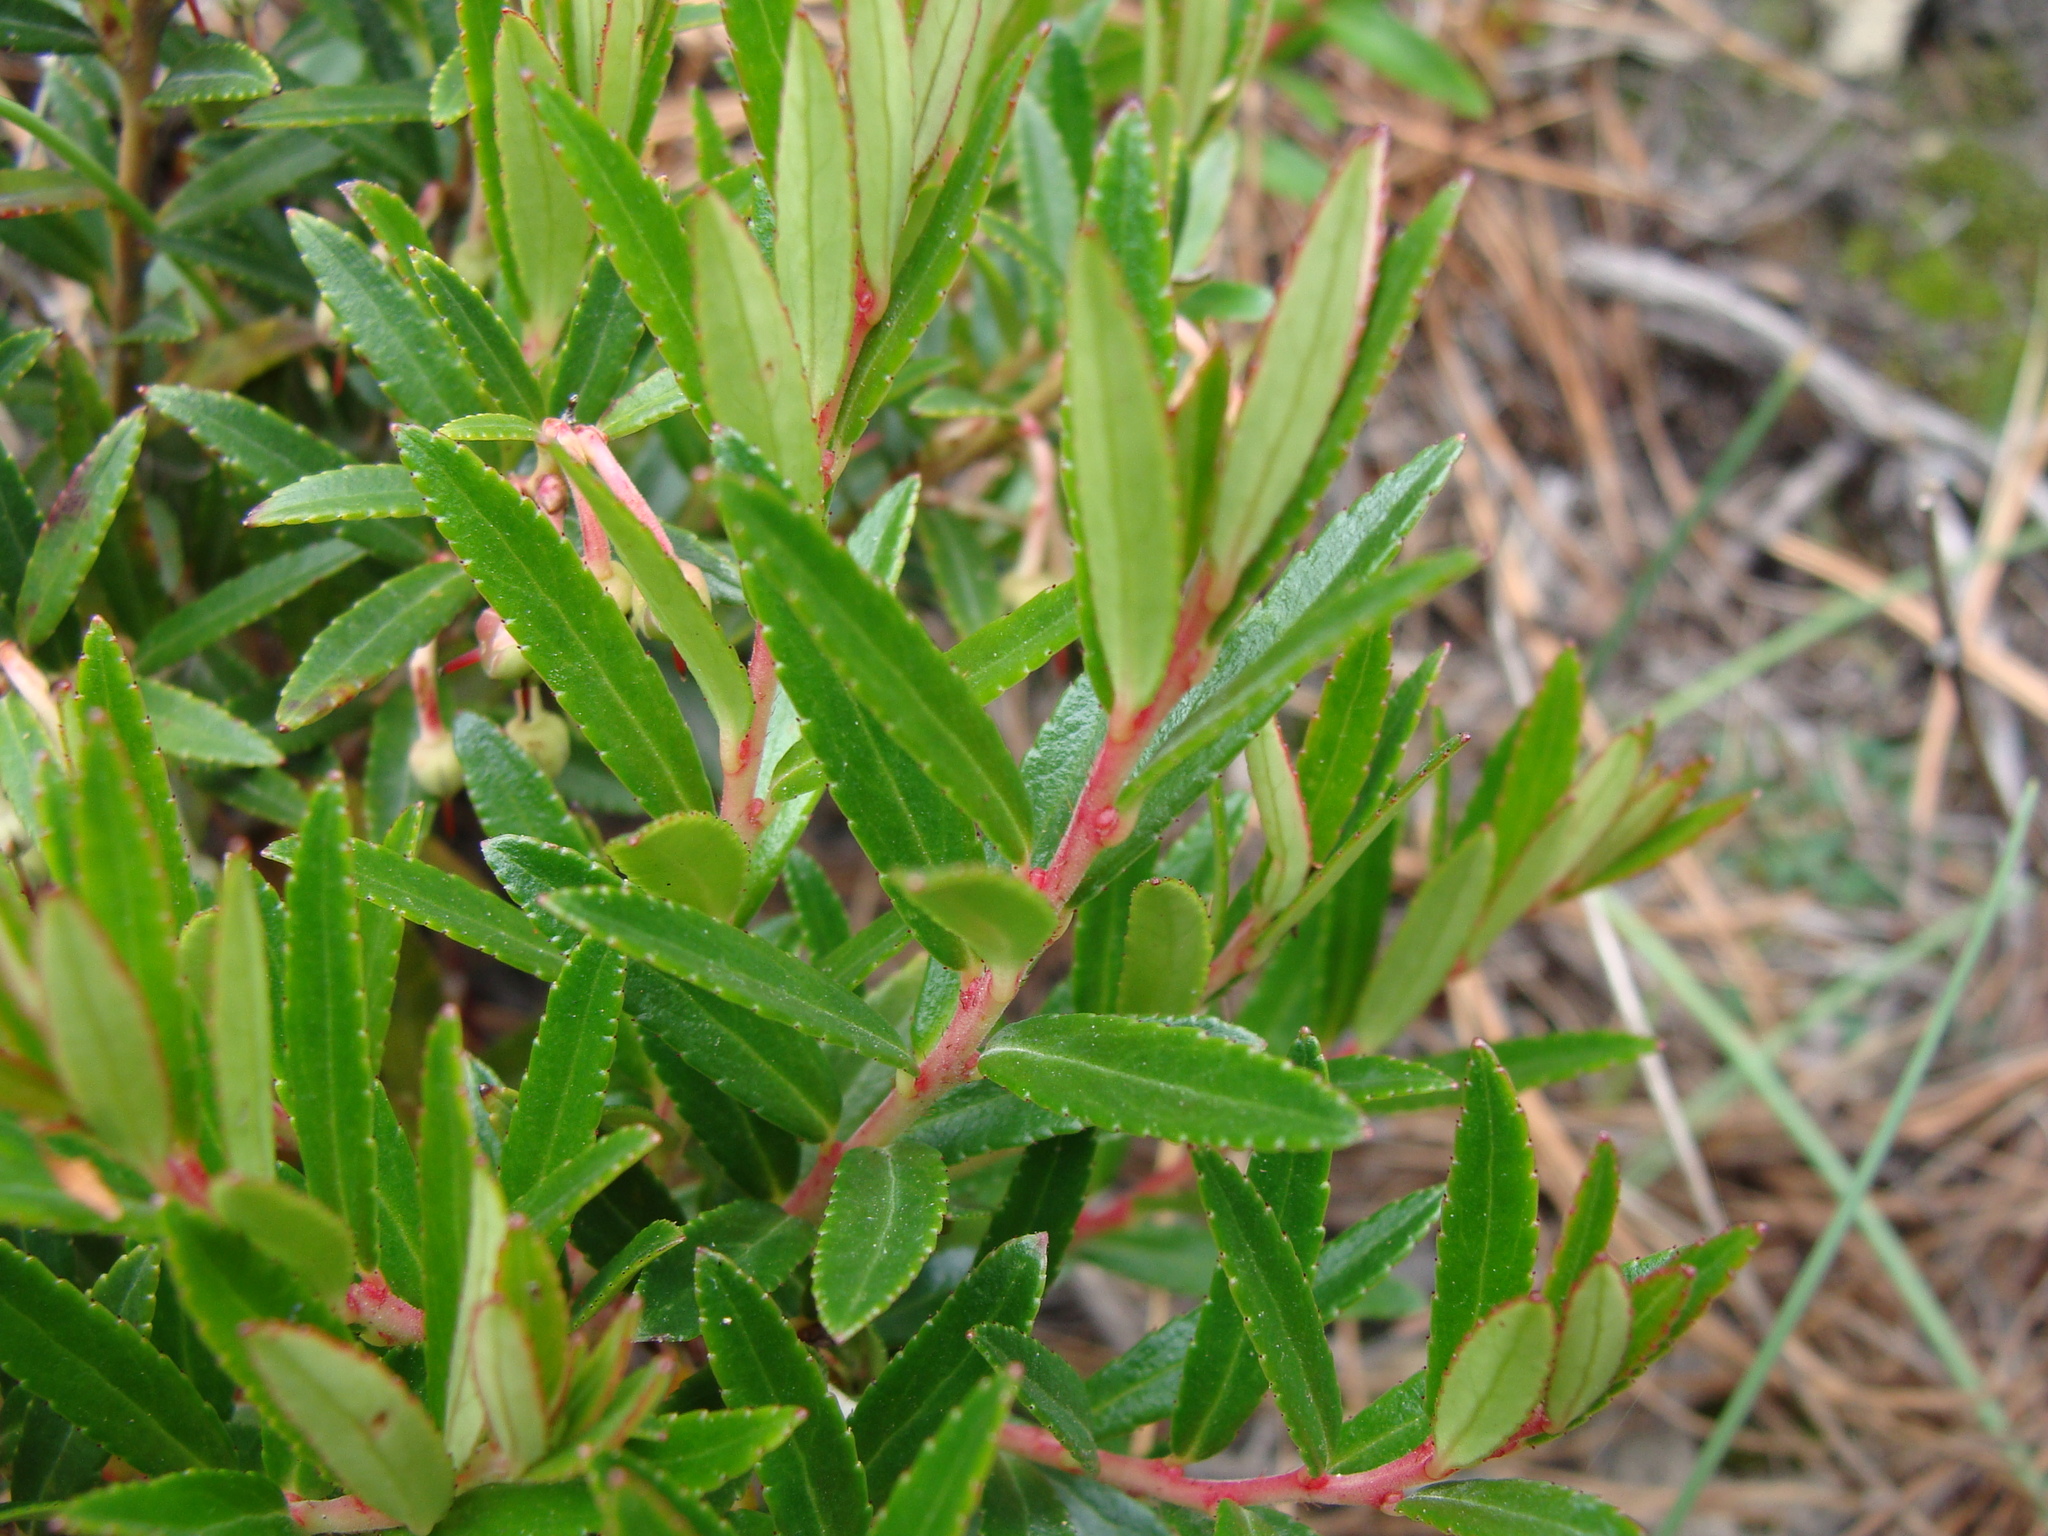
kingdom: Plantae
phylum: Tracheophyta
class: Magnoliopsida
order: Ericales
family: Ericaceae
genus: Gaultheria
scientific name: Gaultheria myrsinoides
